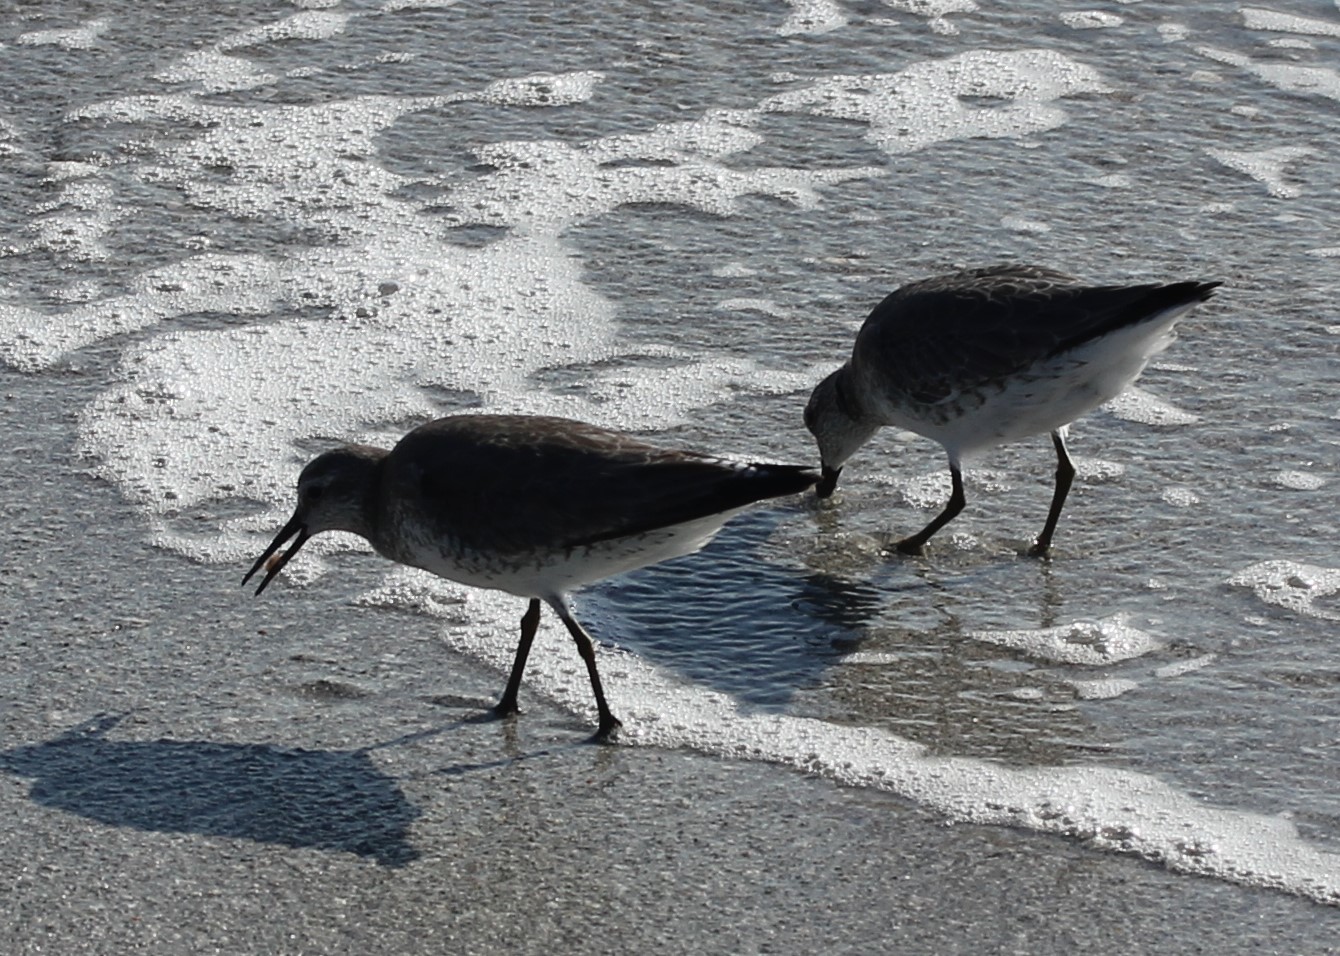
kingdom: Animalia
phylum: Chordata
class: Aves
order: Charadriiformes
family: Scolopacidae
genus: Calidris
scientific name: Calidris canutus
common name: Red knot
